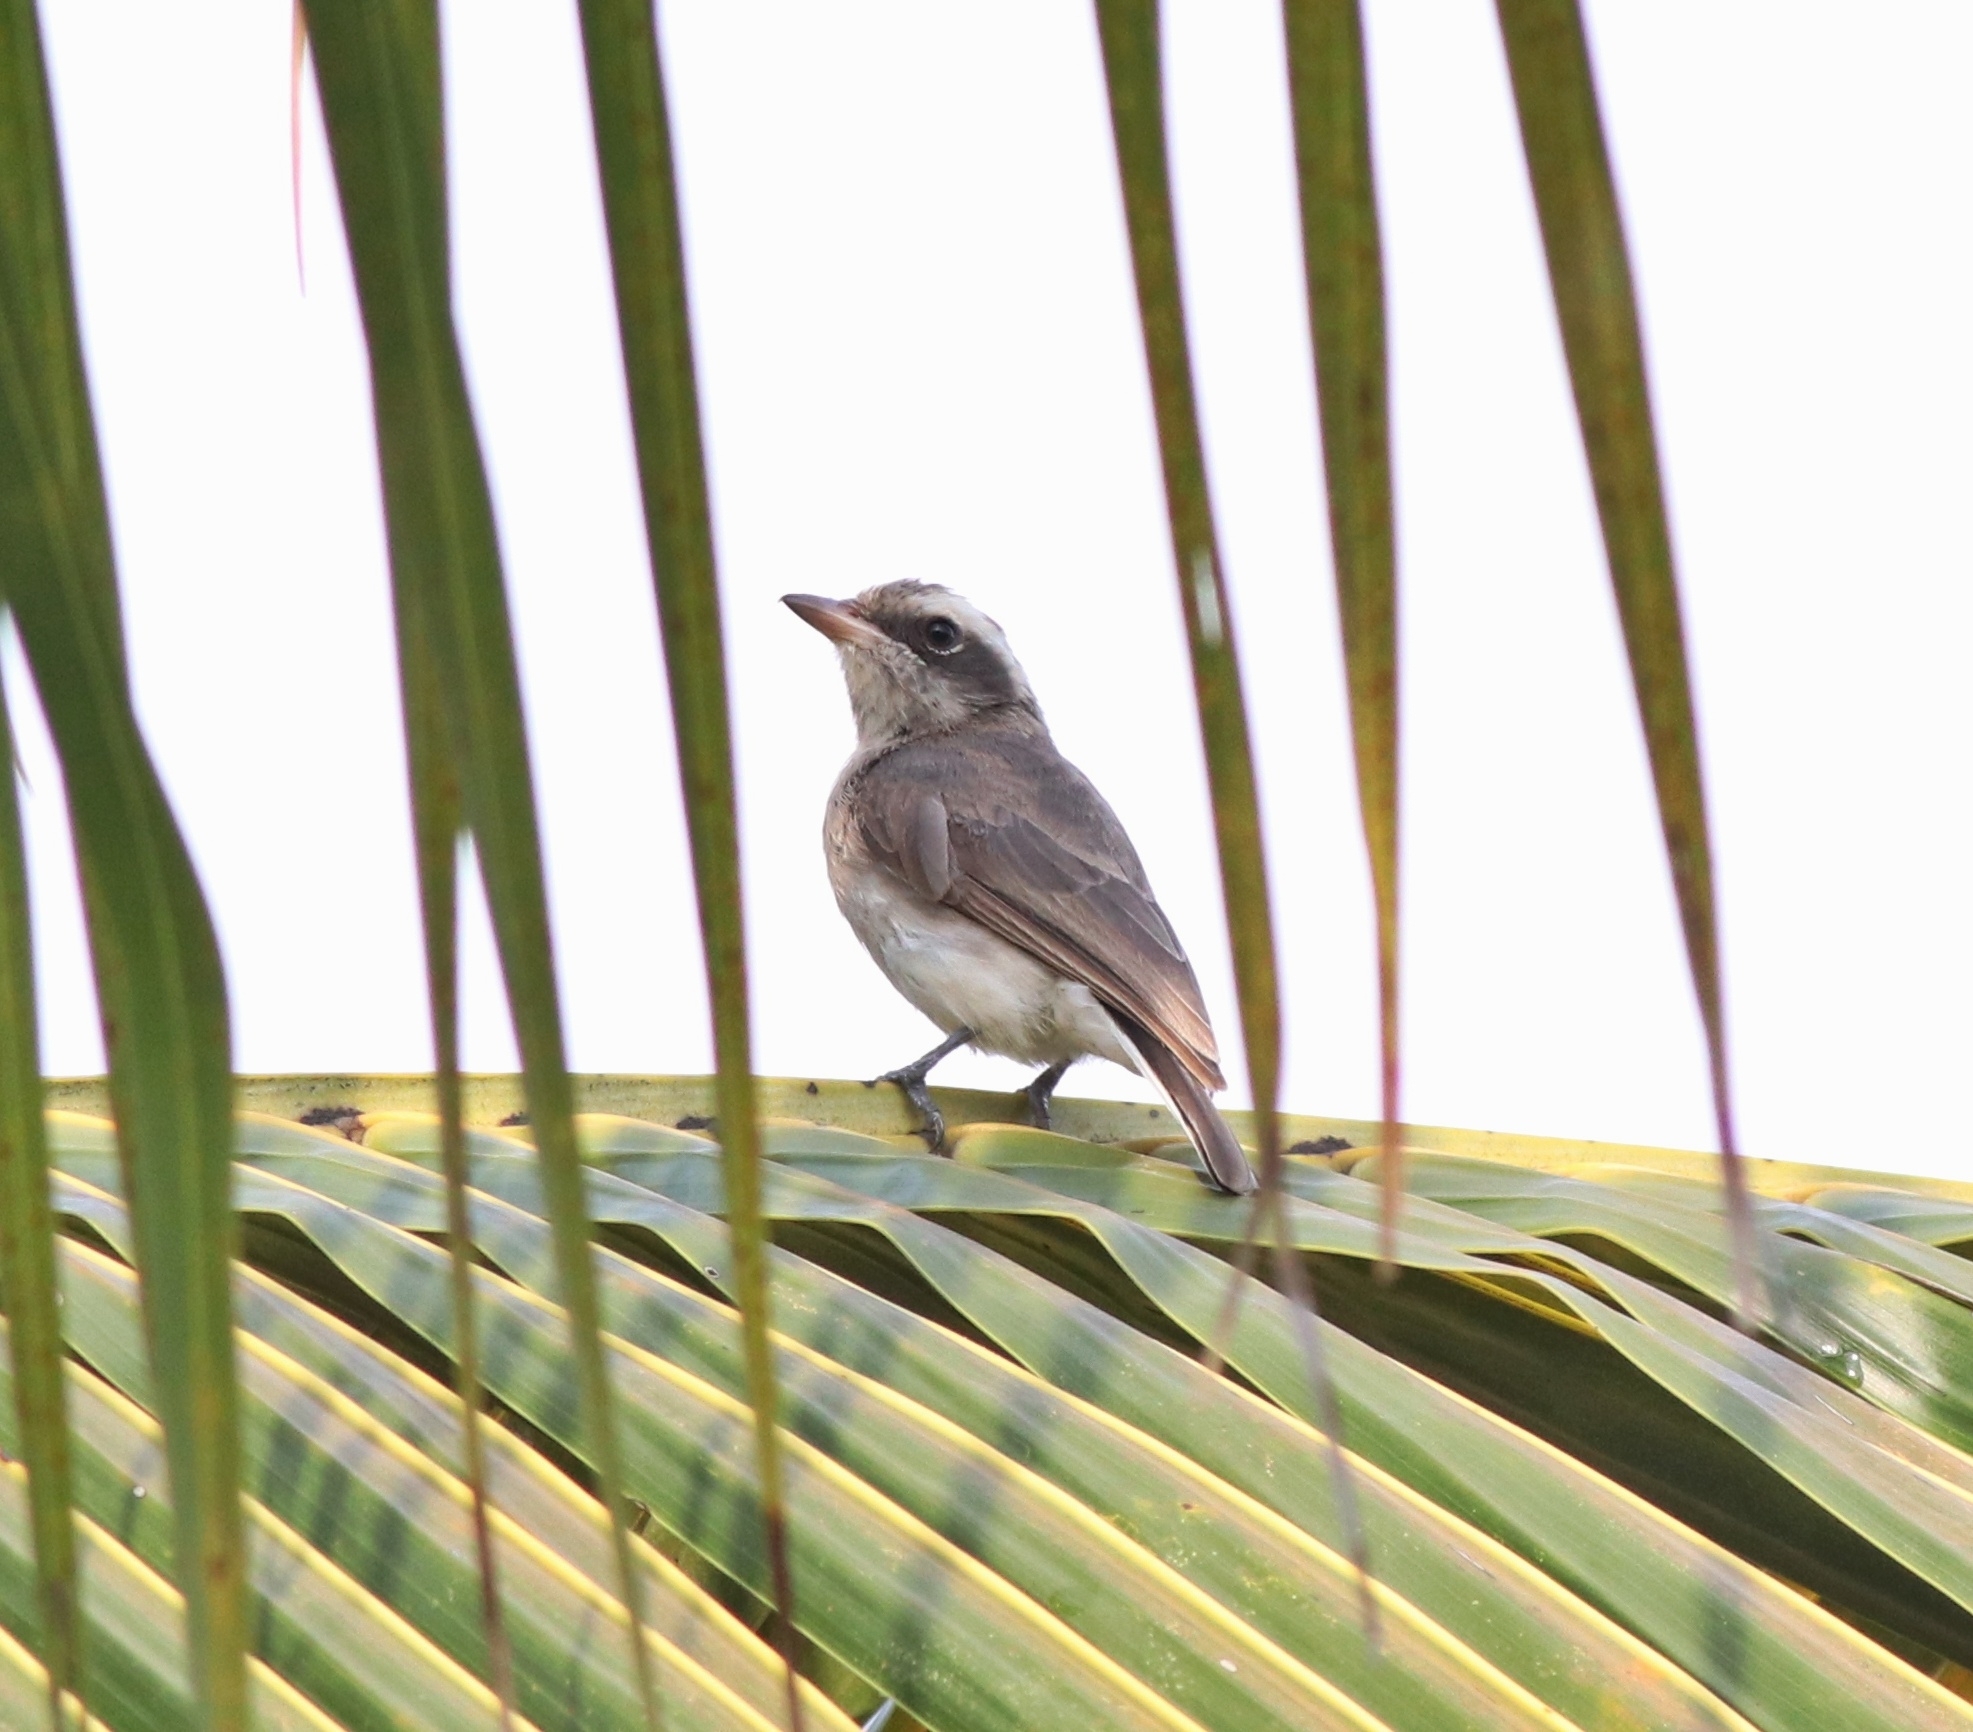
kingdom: Animalia
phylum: Chordata
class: Aves
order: Passeriformes
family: Tephrodornithidae
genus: Tephrodornis
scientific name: Tephrodornis pondicerianus
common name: Common woodshrike
